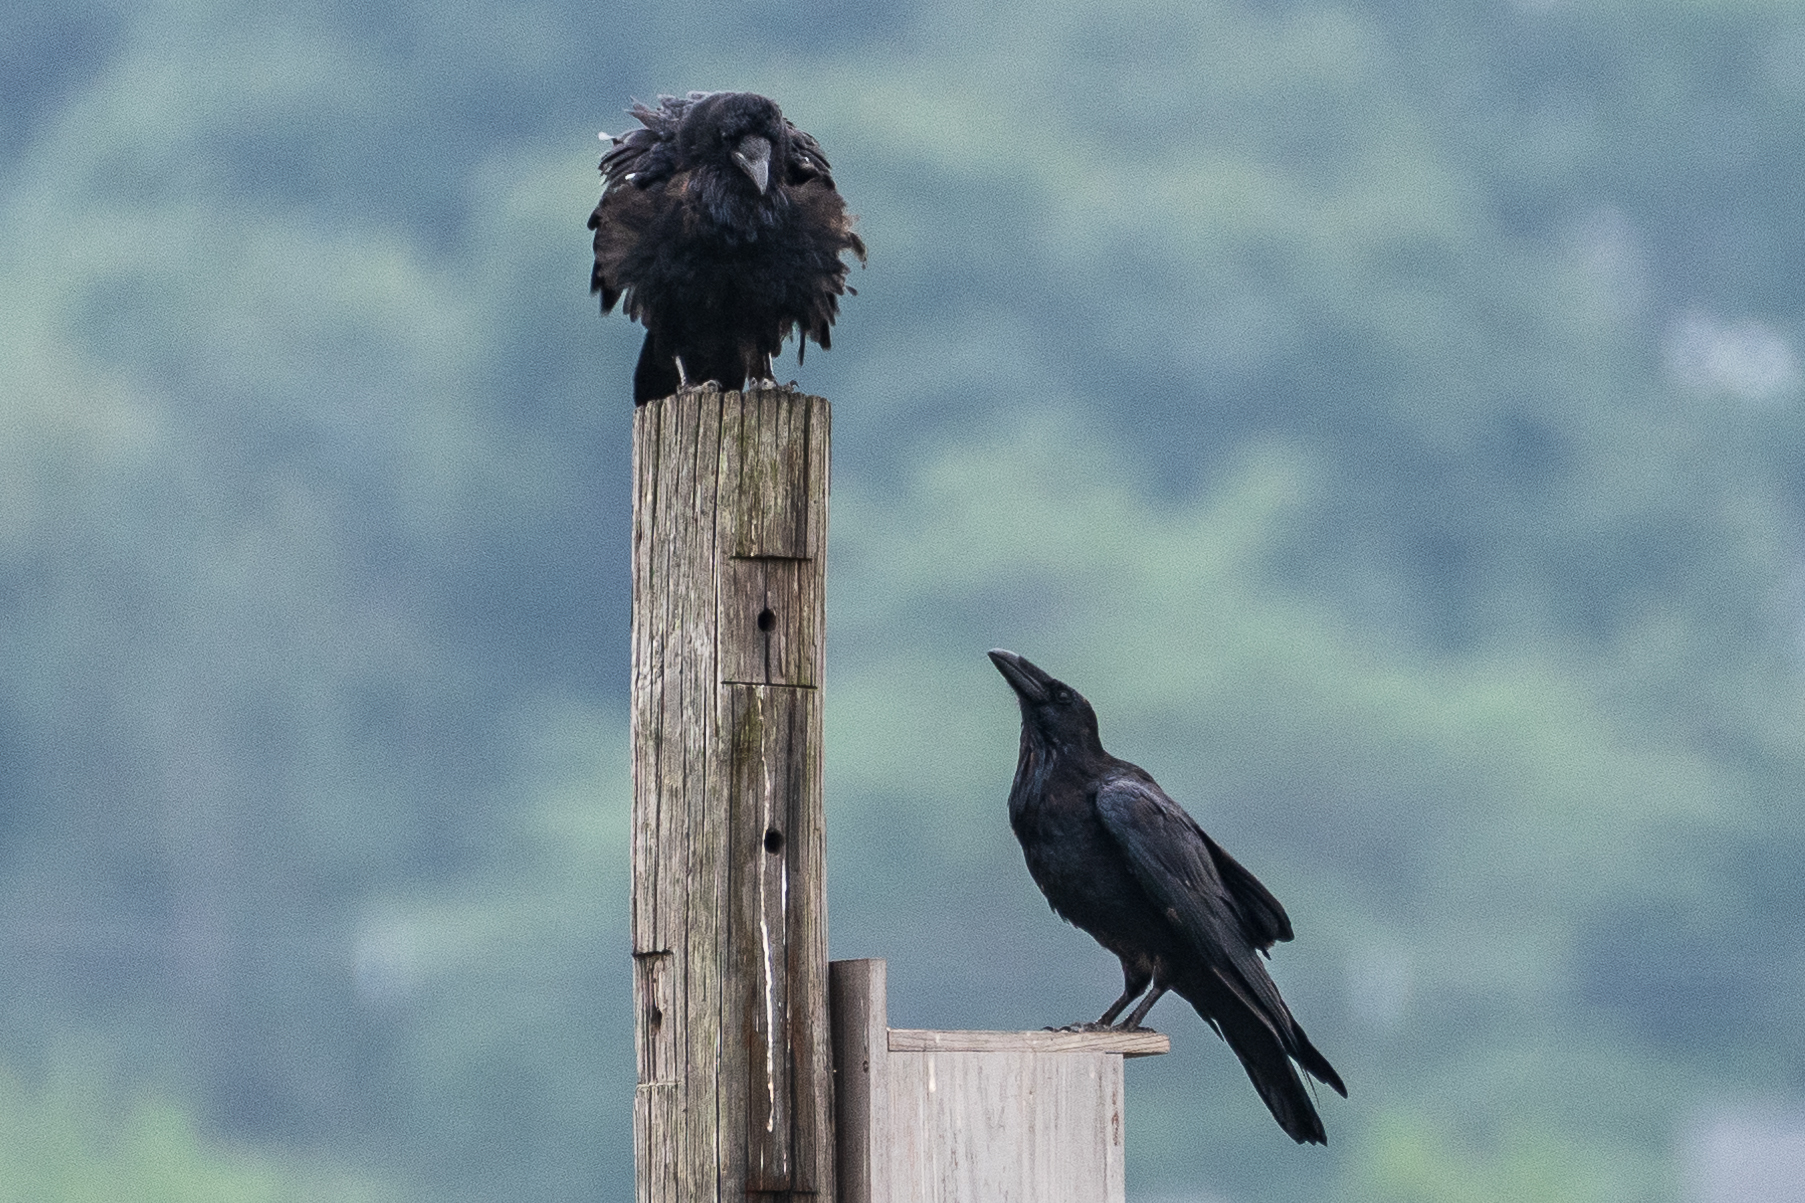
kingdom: Animalia
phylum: Chordata
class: Aves
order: Passeriformes
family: Corvidae
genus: Corvus
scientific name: Corvus corax
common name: Common raven
